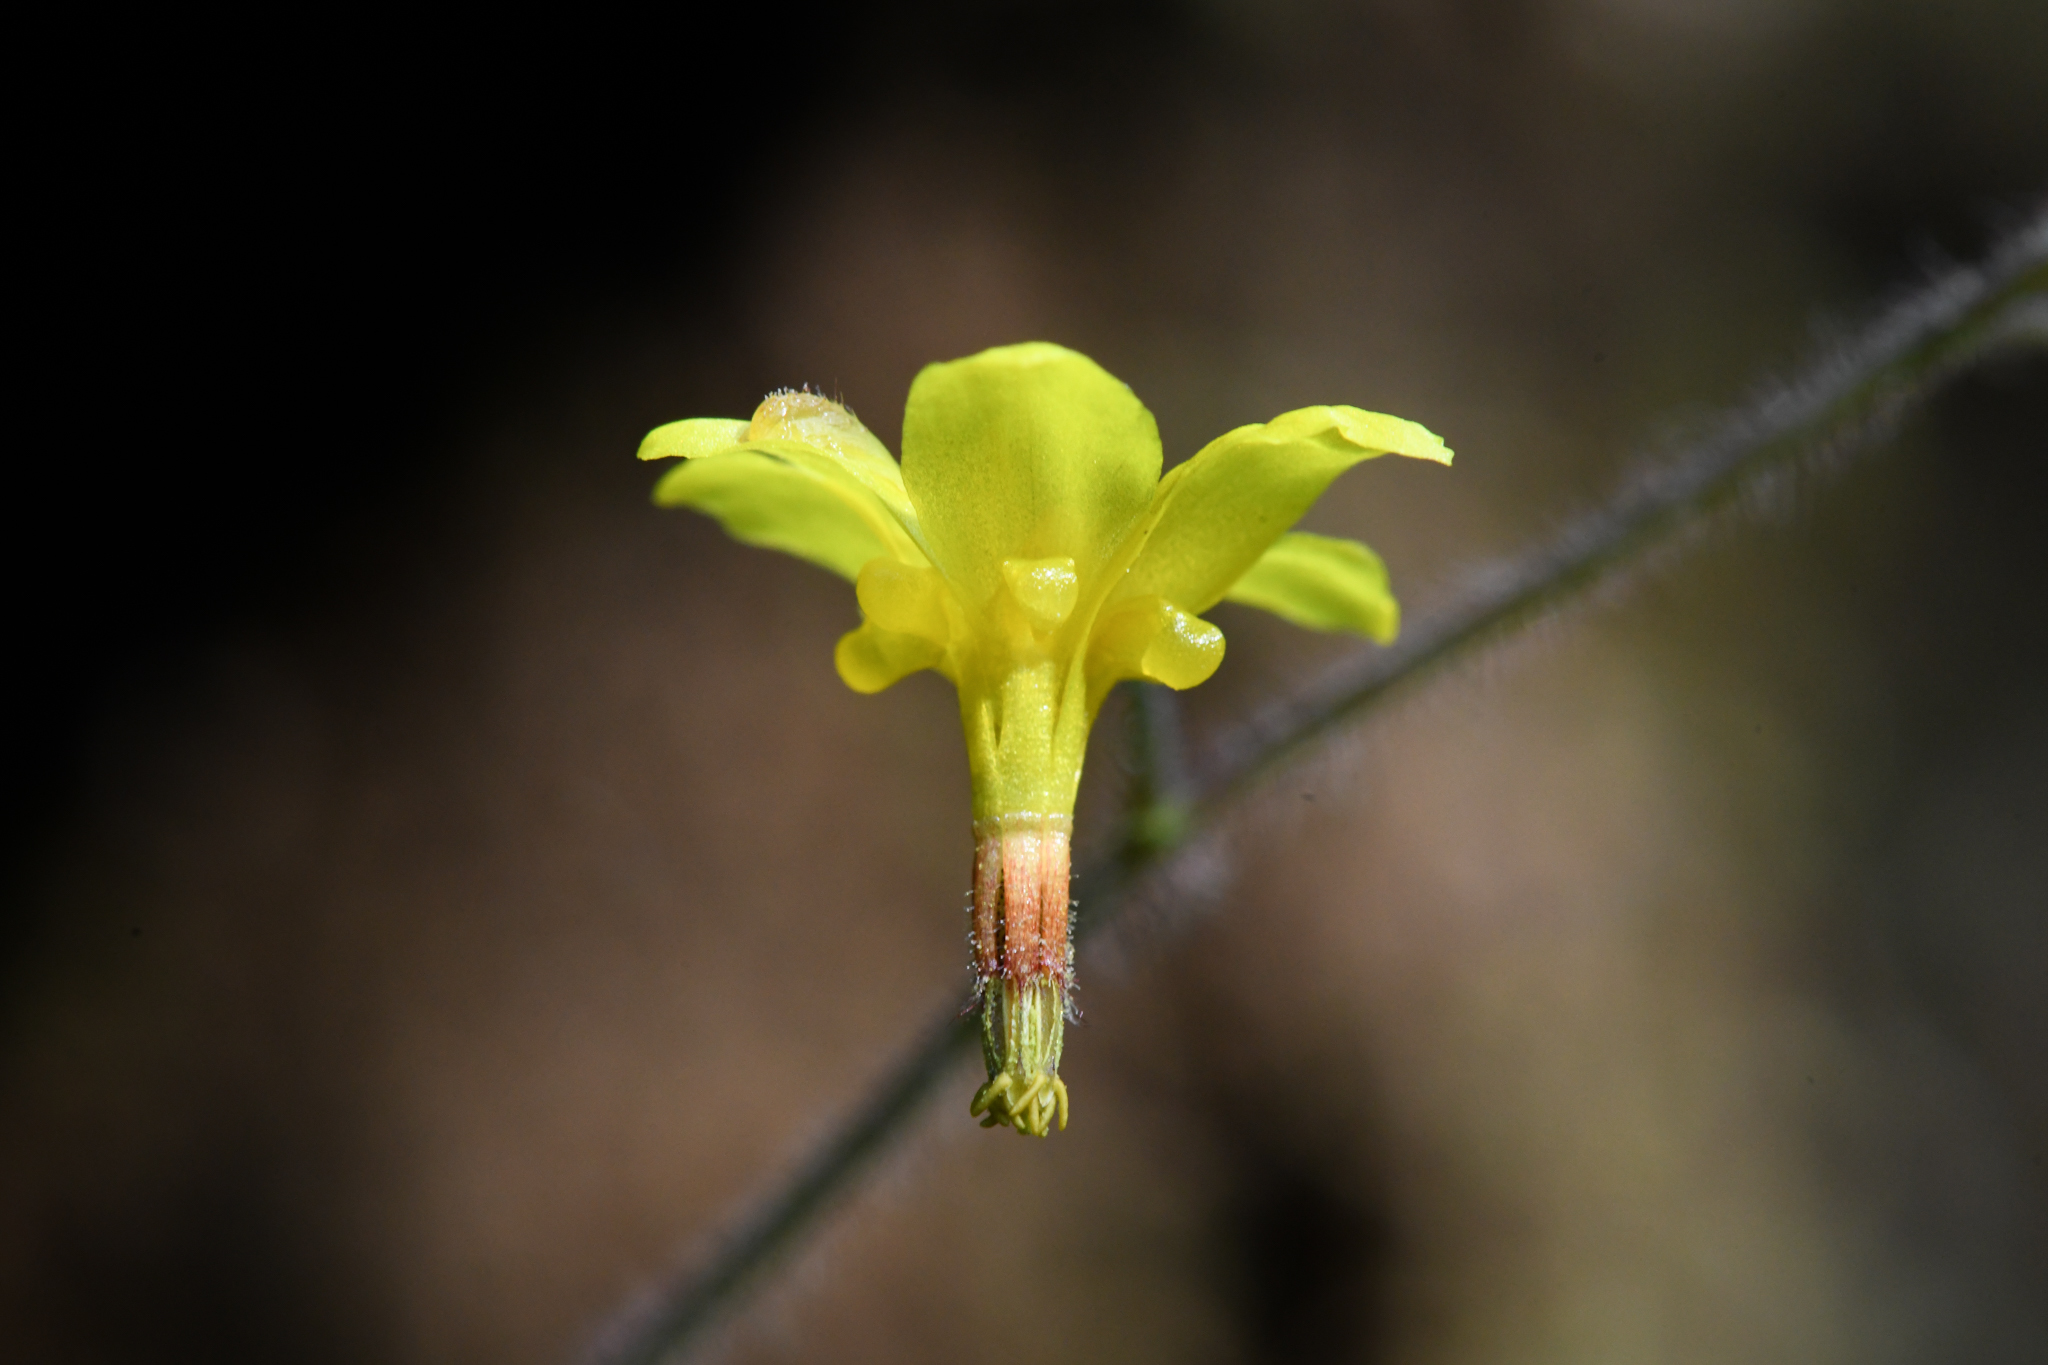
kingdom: Plantae
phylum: Tracheophyta
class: Magnoliopsida
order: Ranunculales
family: Berberidaceae
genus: Vancouveria
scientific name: Vancouveria chrysantha
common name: Siskiyou inside-out-flower
